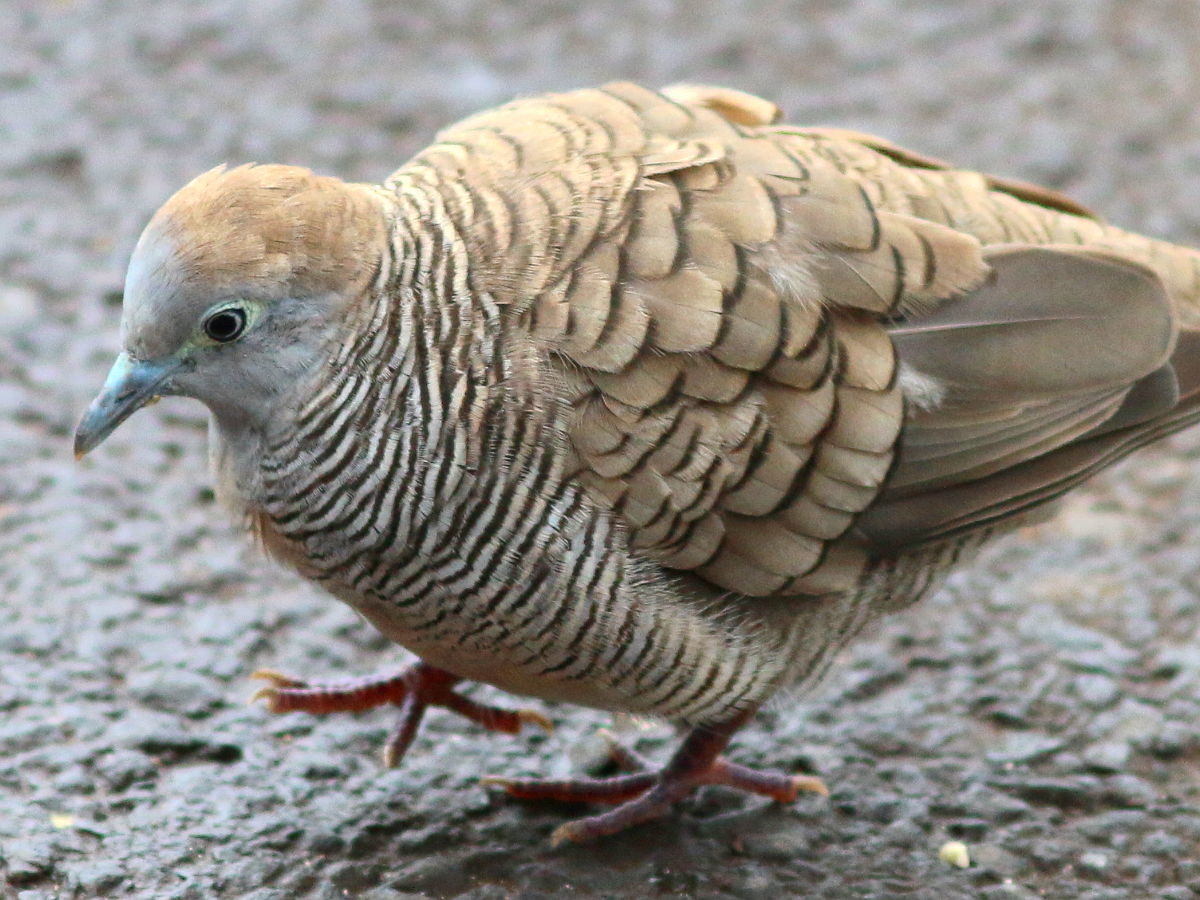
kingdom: Animalia
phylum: Chordata
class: Aves
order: Columbiformes
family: Columbidae
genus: Geopelia
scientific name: Geopelia striata
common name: Zebra dove
